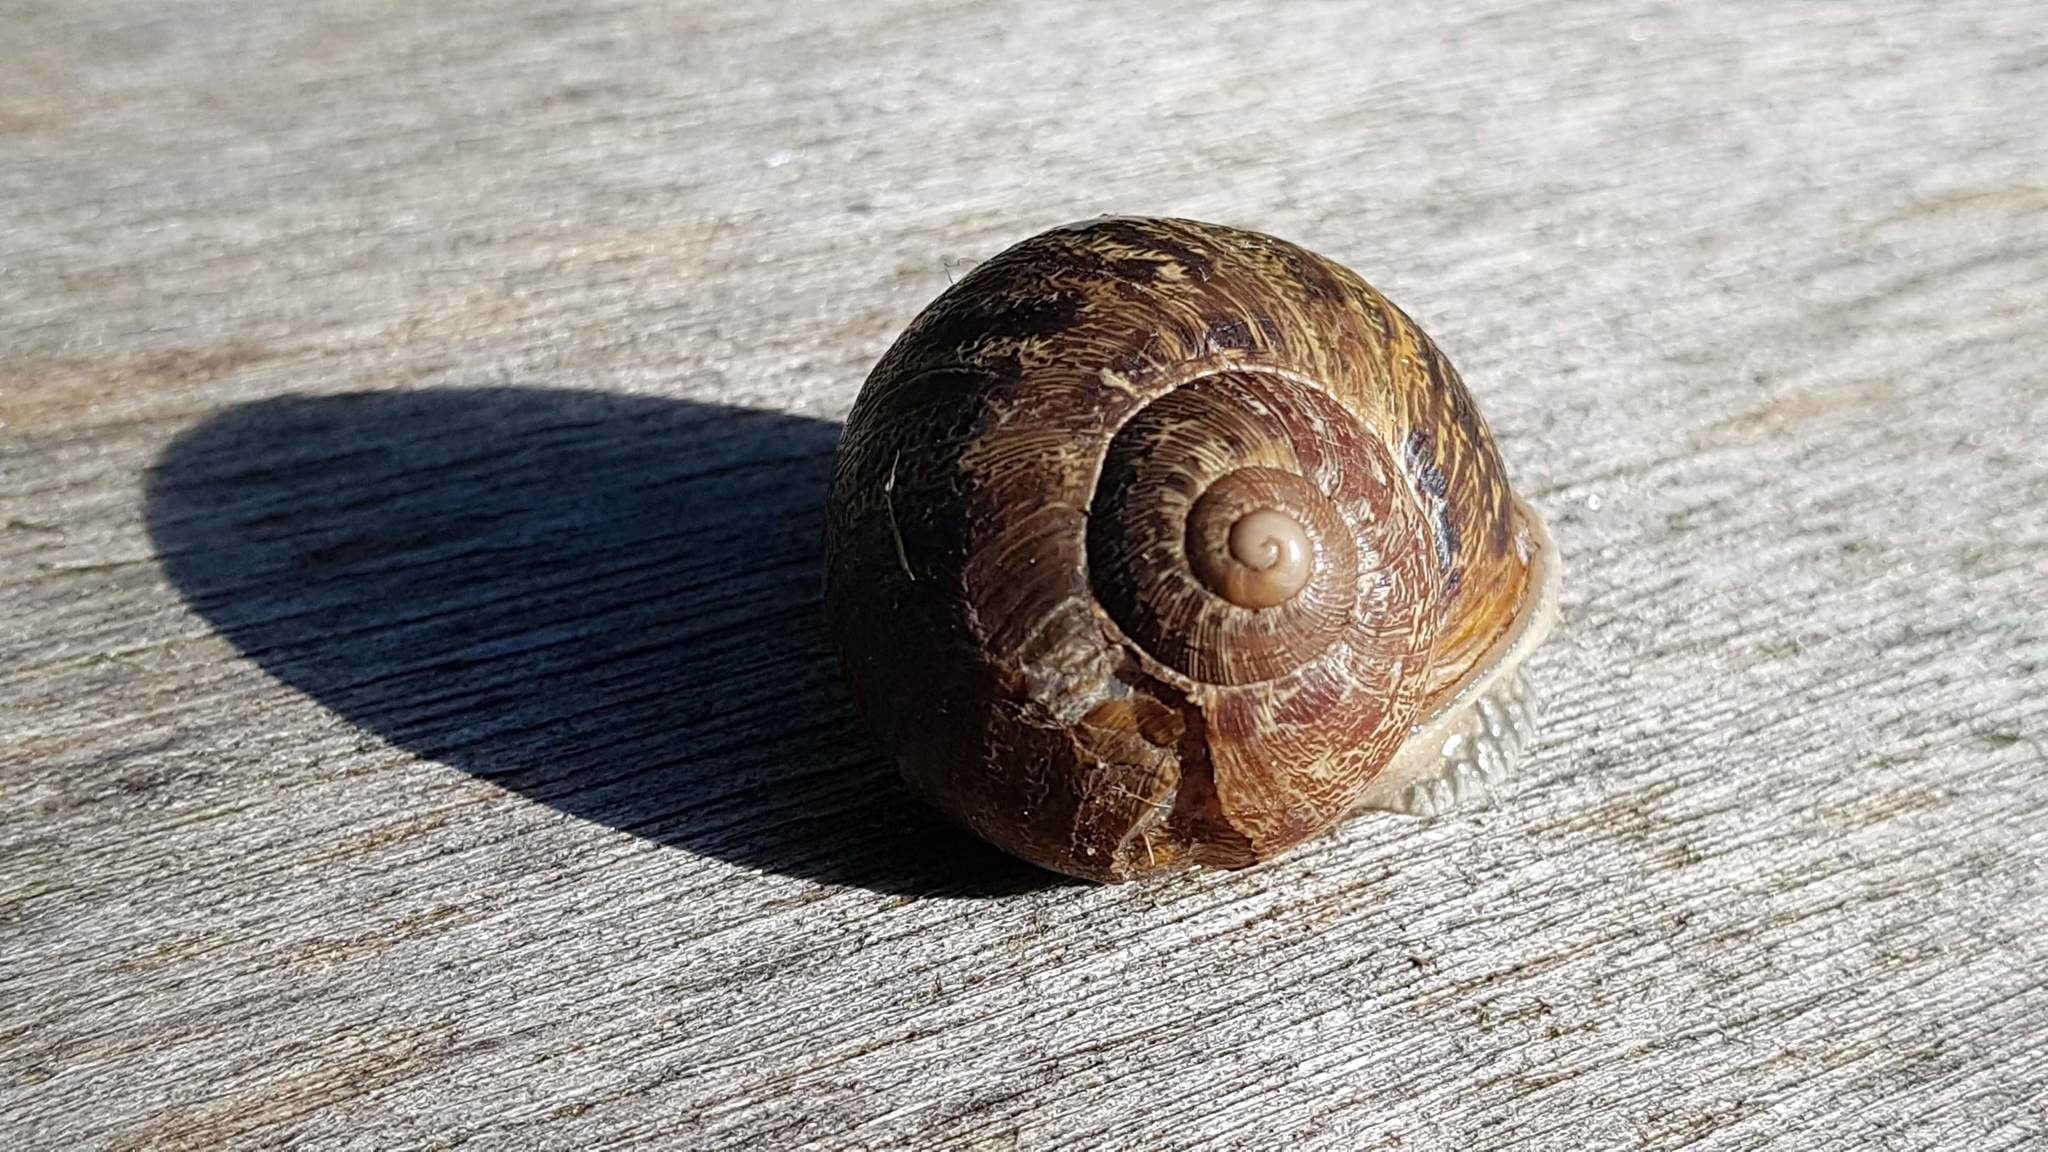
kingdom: Animalia
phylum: Mollusca
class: Gastropoda
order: Stylommatophora
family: Helicidae
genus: Cornu
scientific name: Cornu aspersum
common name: Brown garden snail
